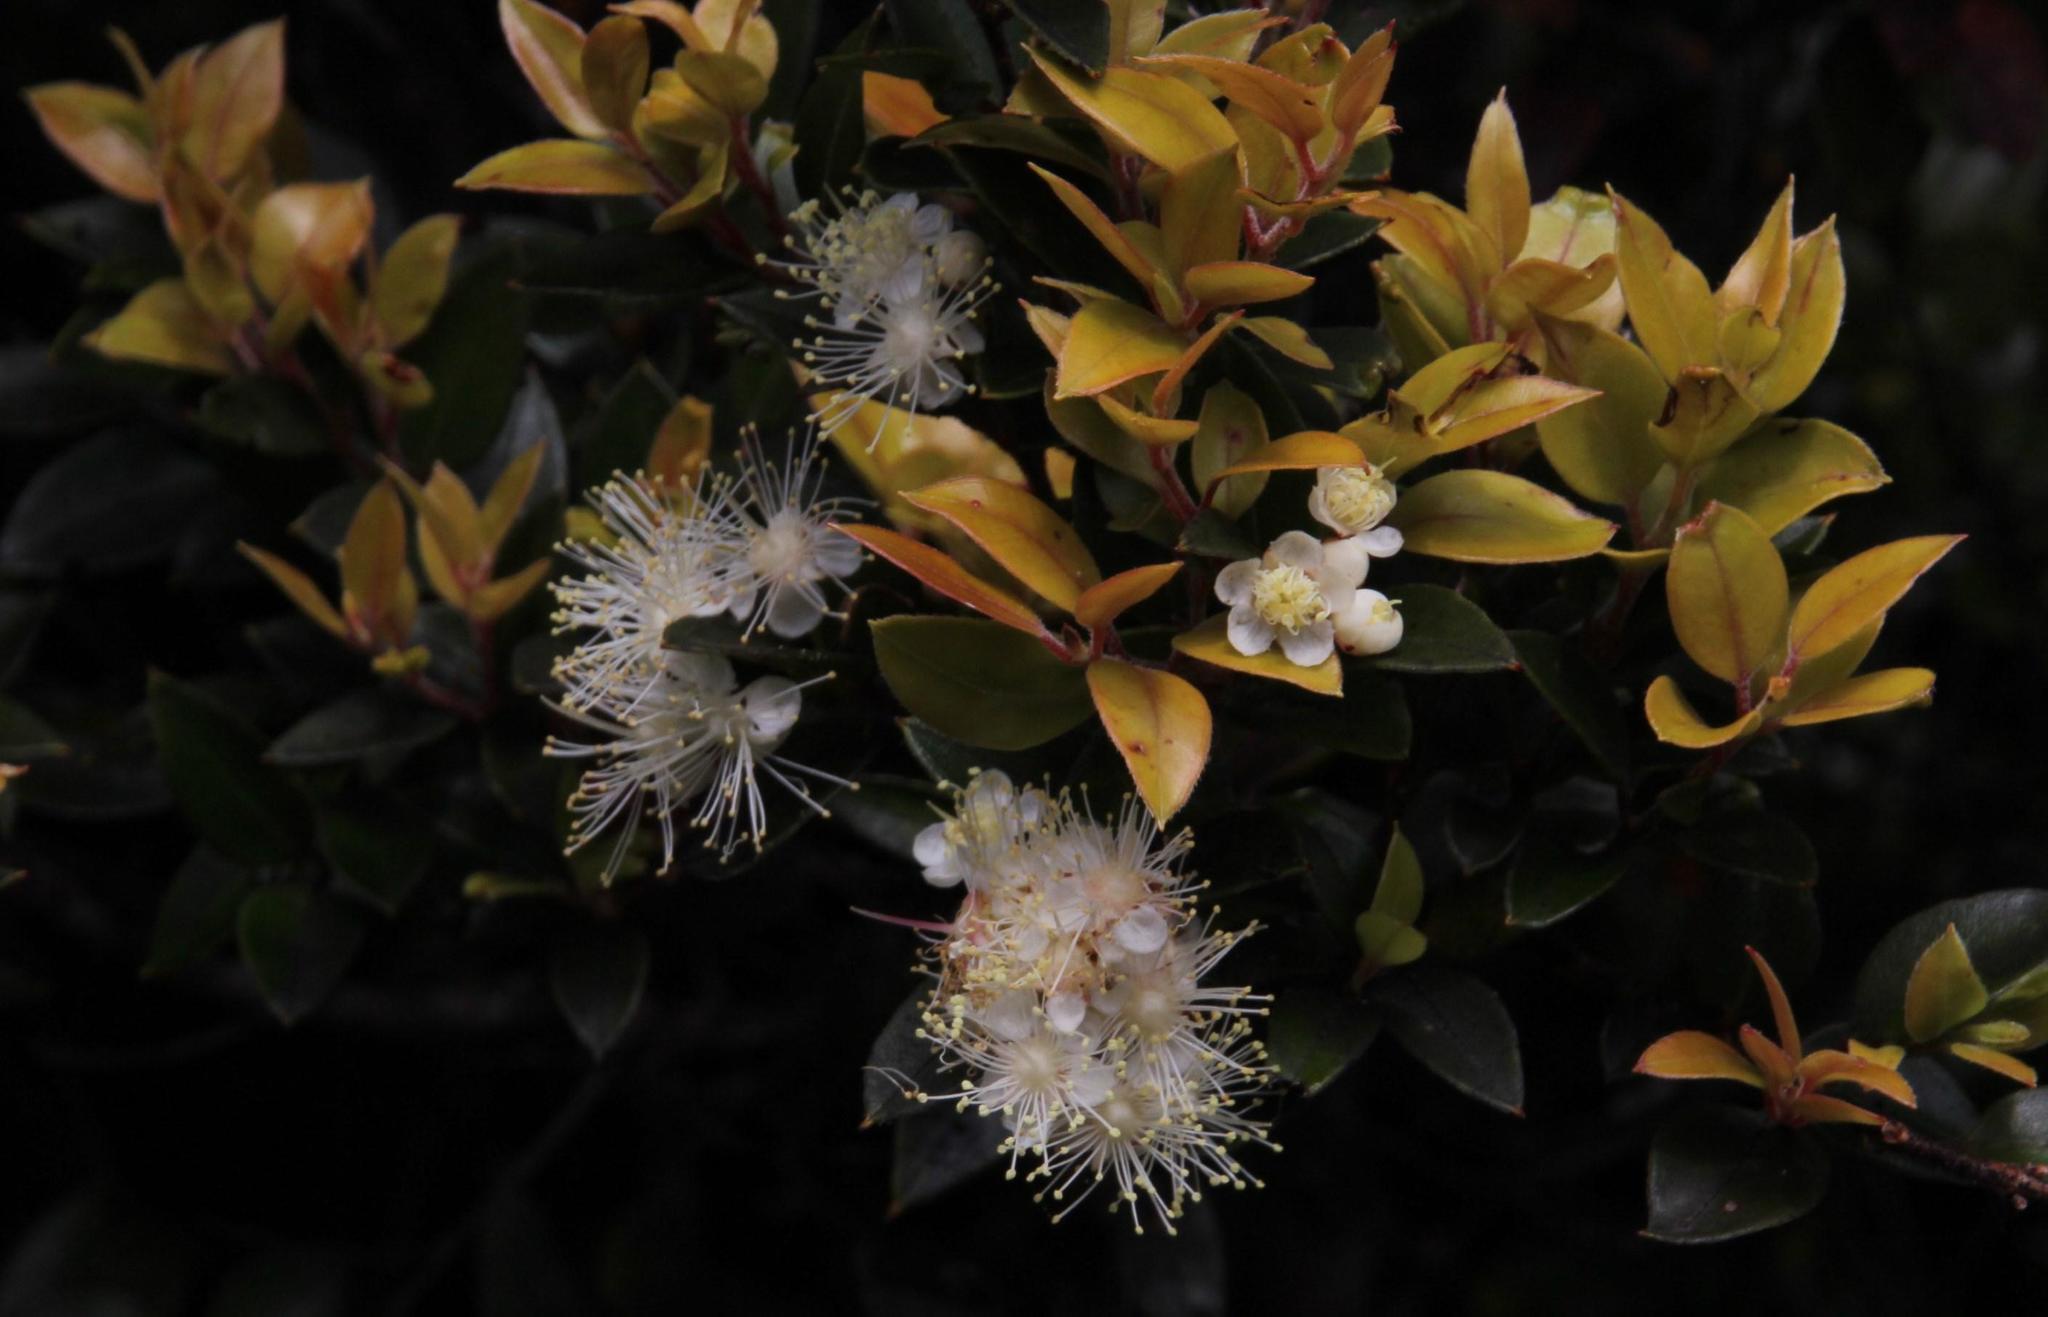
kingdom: Plantae
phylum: Tracheophyta
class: Magnoliopsida
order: Myrtales
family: Myrtaceae
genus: Amomyrtus
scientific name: Amomyrtus luma
